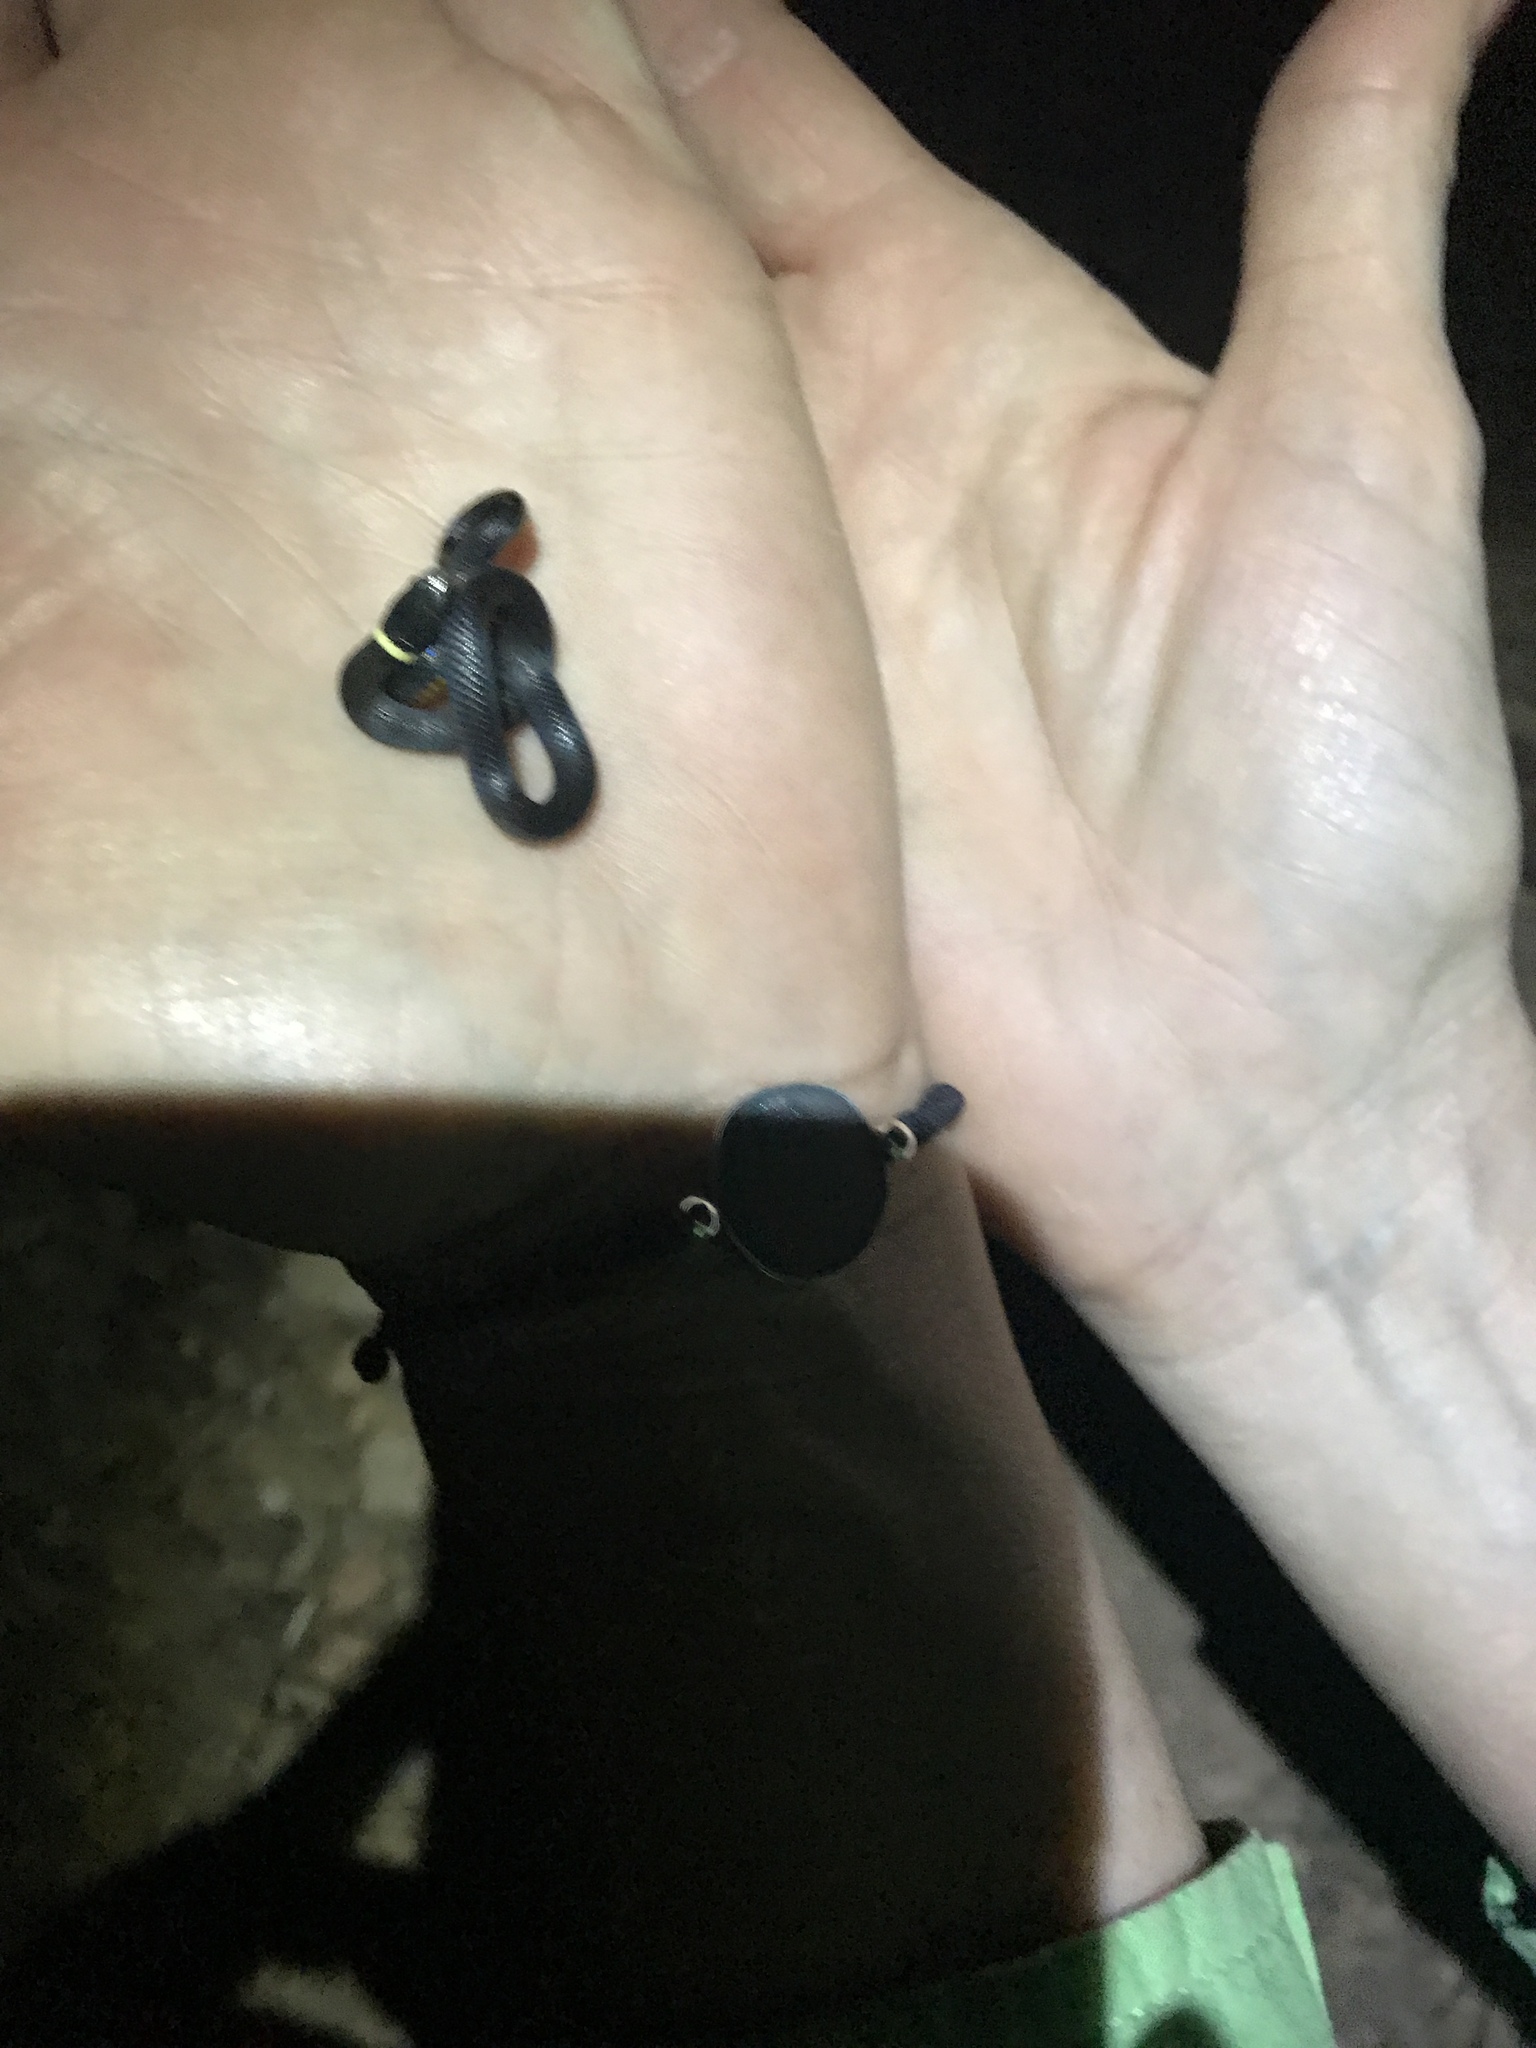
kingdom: Animalia
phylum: Chordata
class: Squamata
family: Colubridae
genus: Diadophis
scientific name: Diadophis punctatus
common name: Ringneck snake
